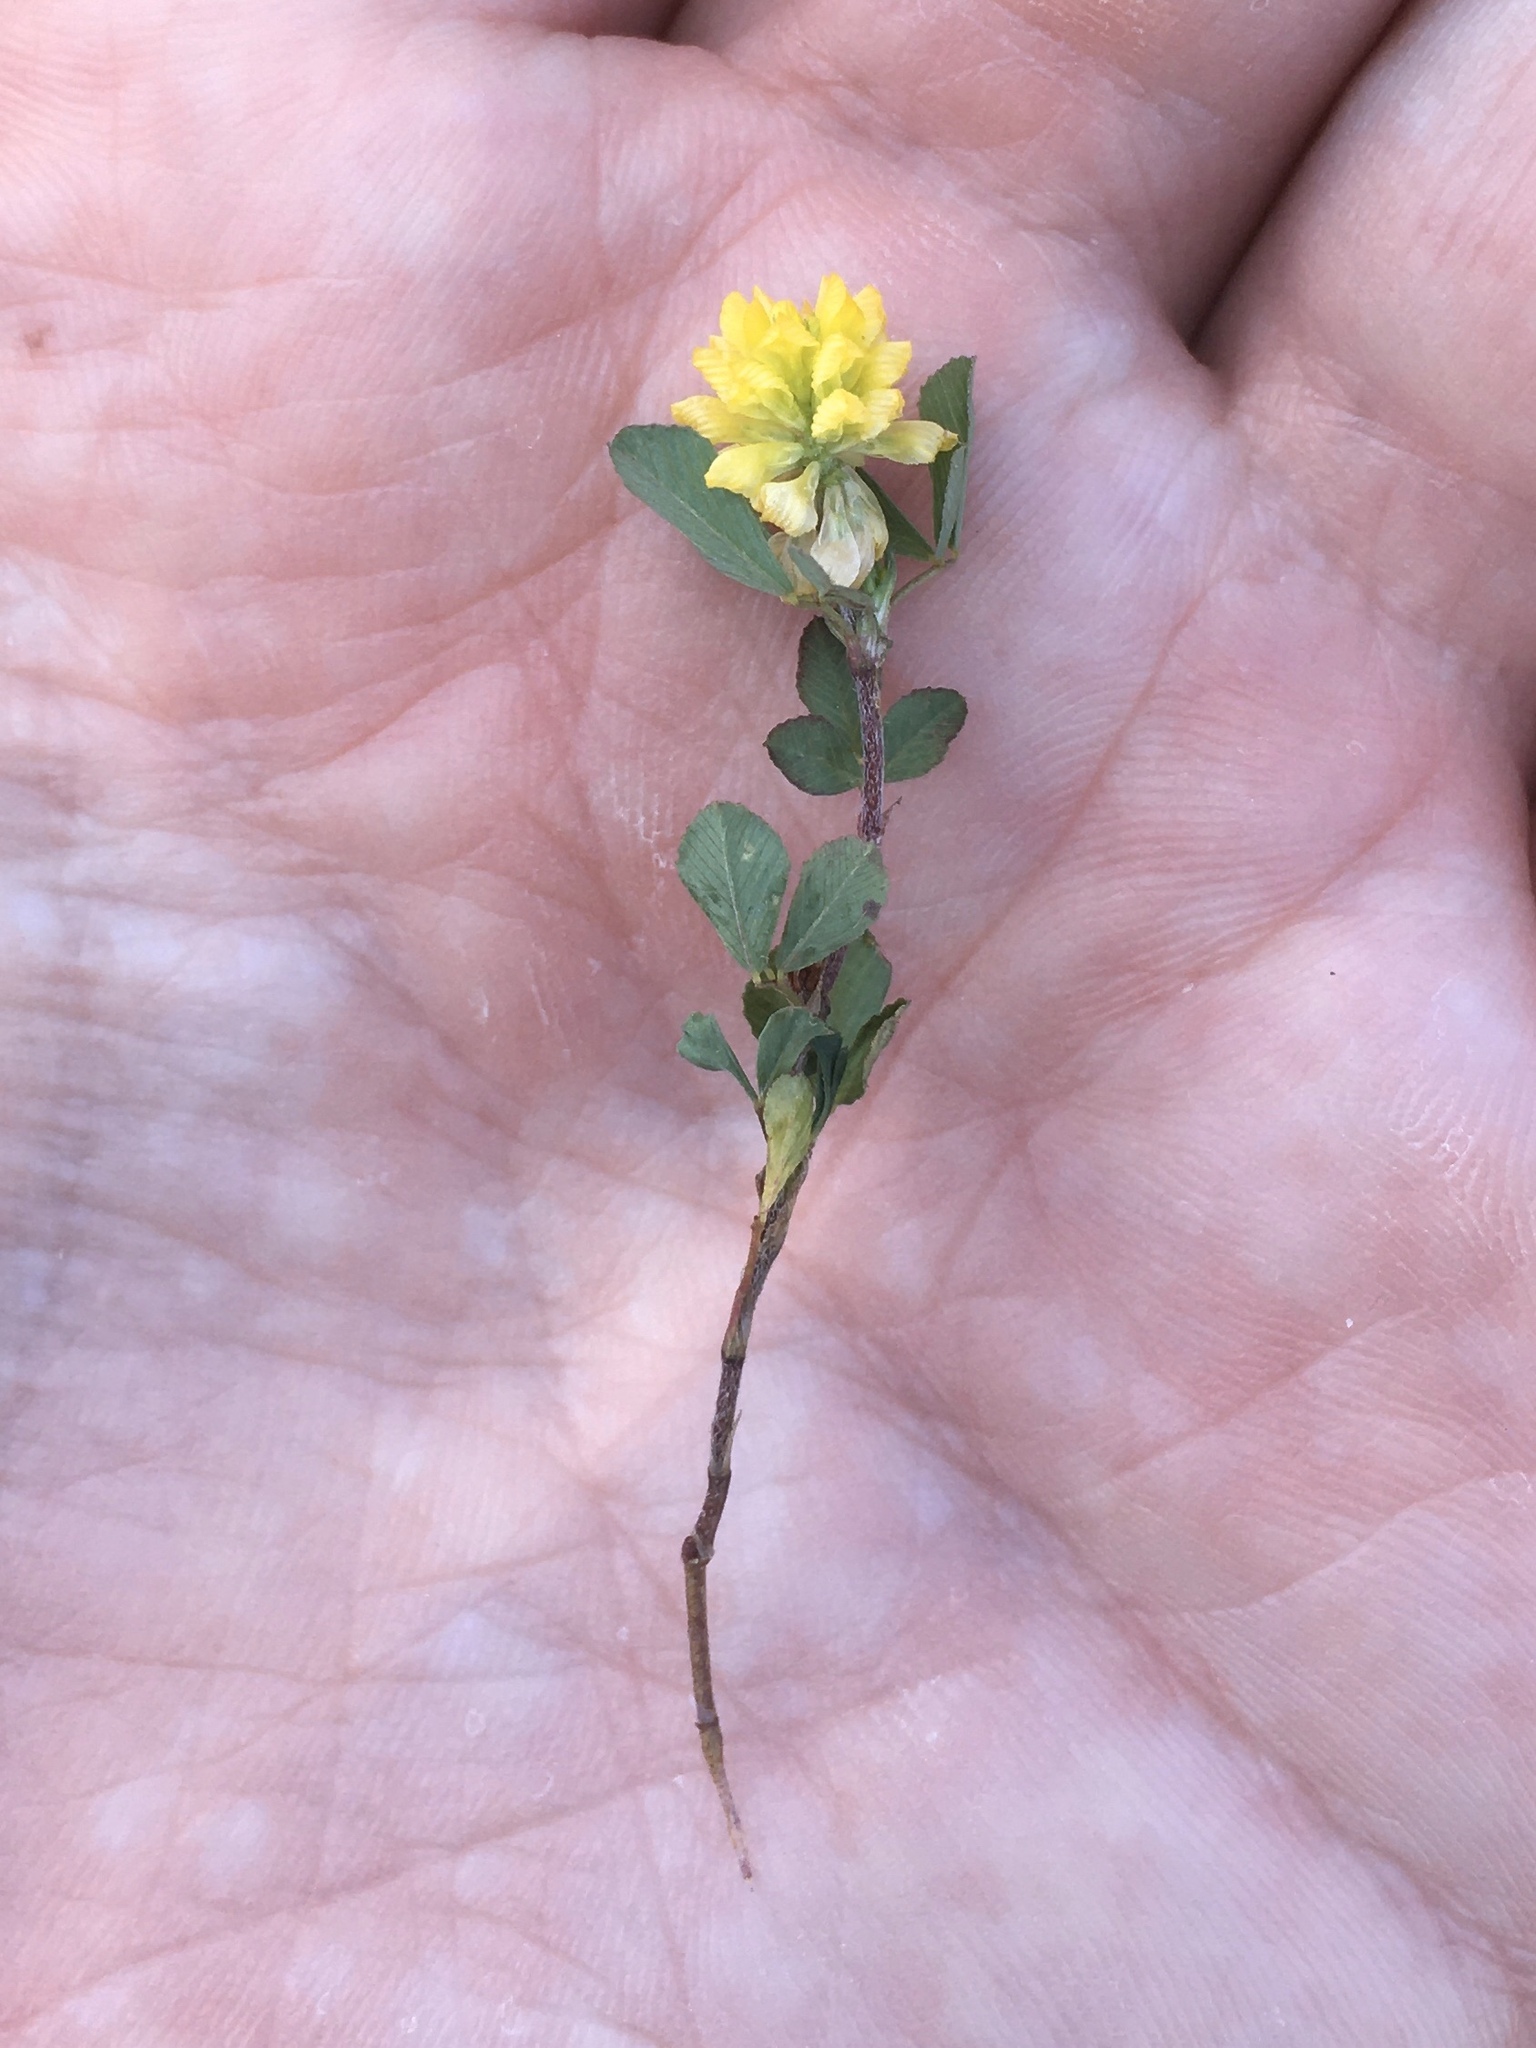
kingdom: Plantae
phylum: Tracheophyta
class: Magnoliopsida
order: Fabales
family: Fabaceae
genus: Trifolium
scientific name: Trifolium dubium
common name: Suckling clover
